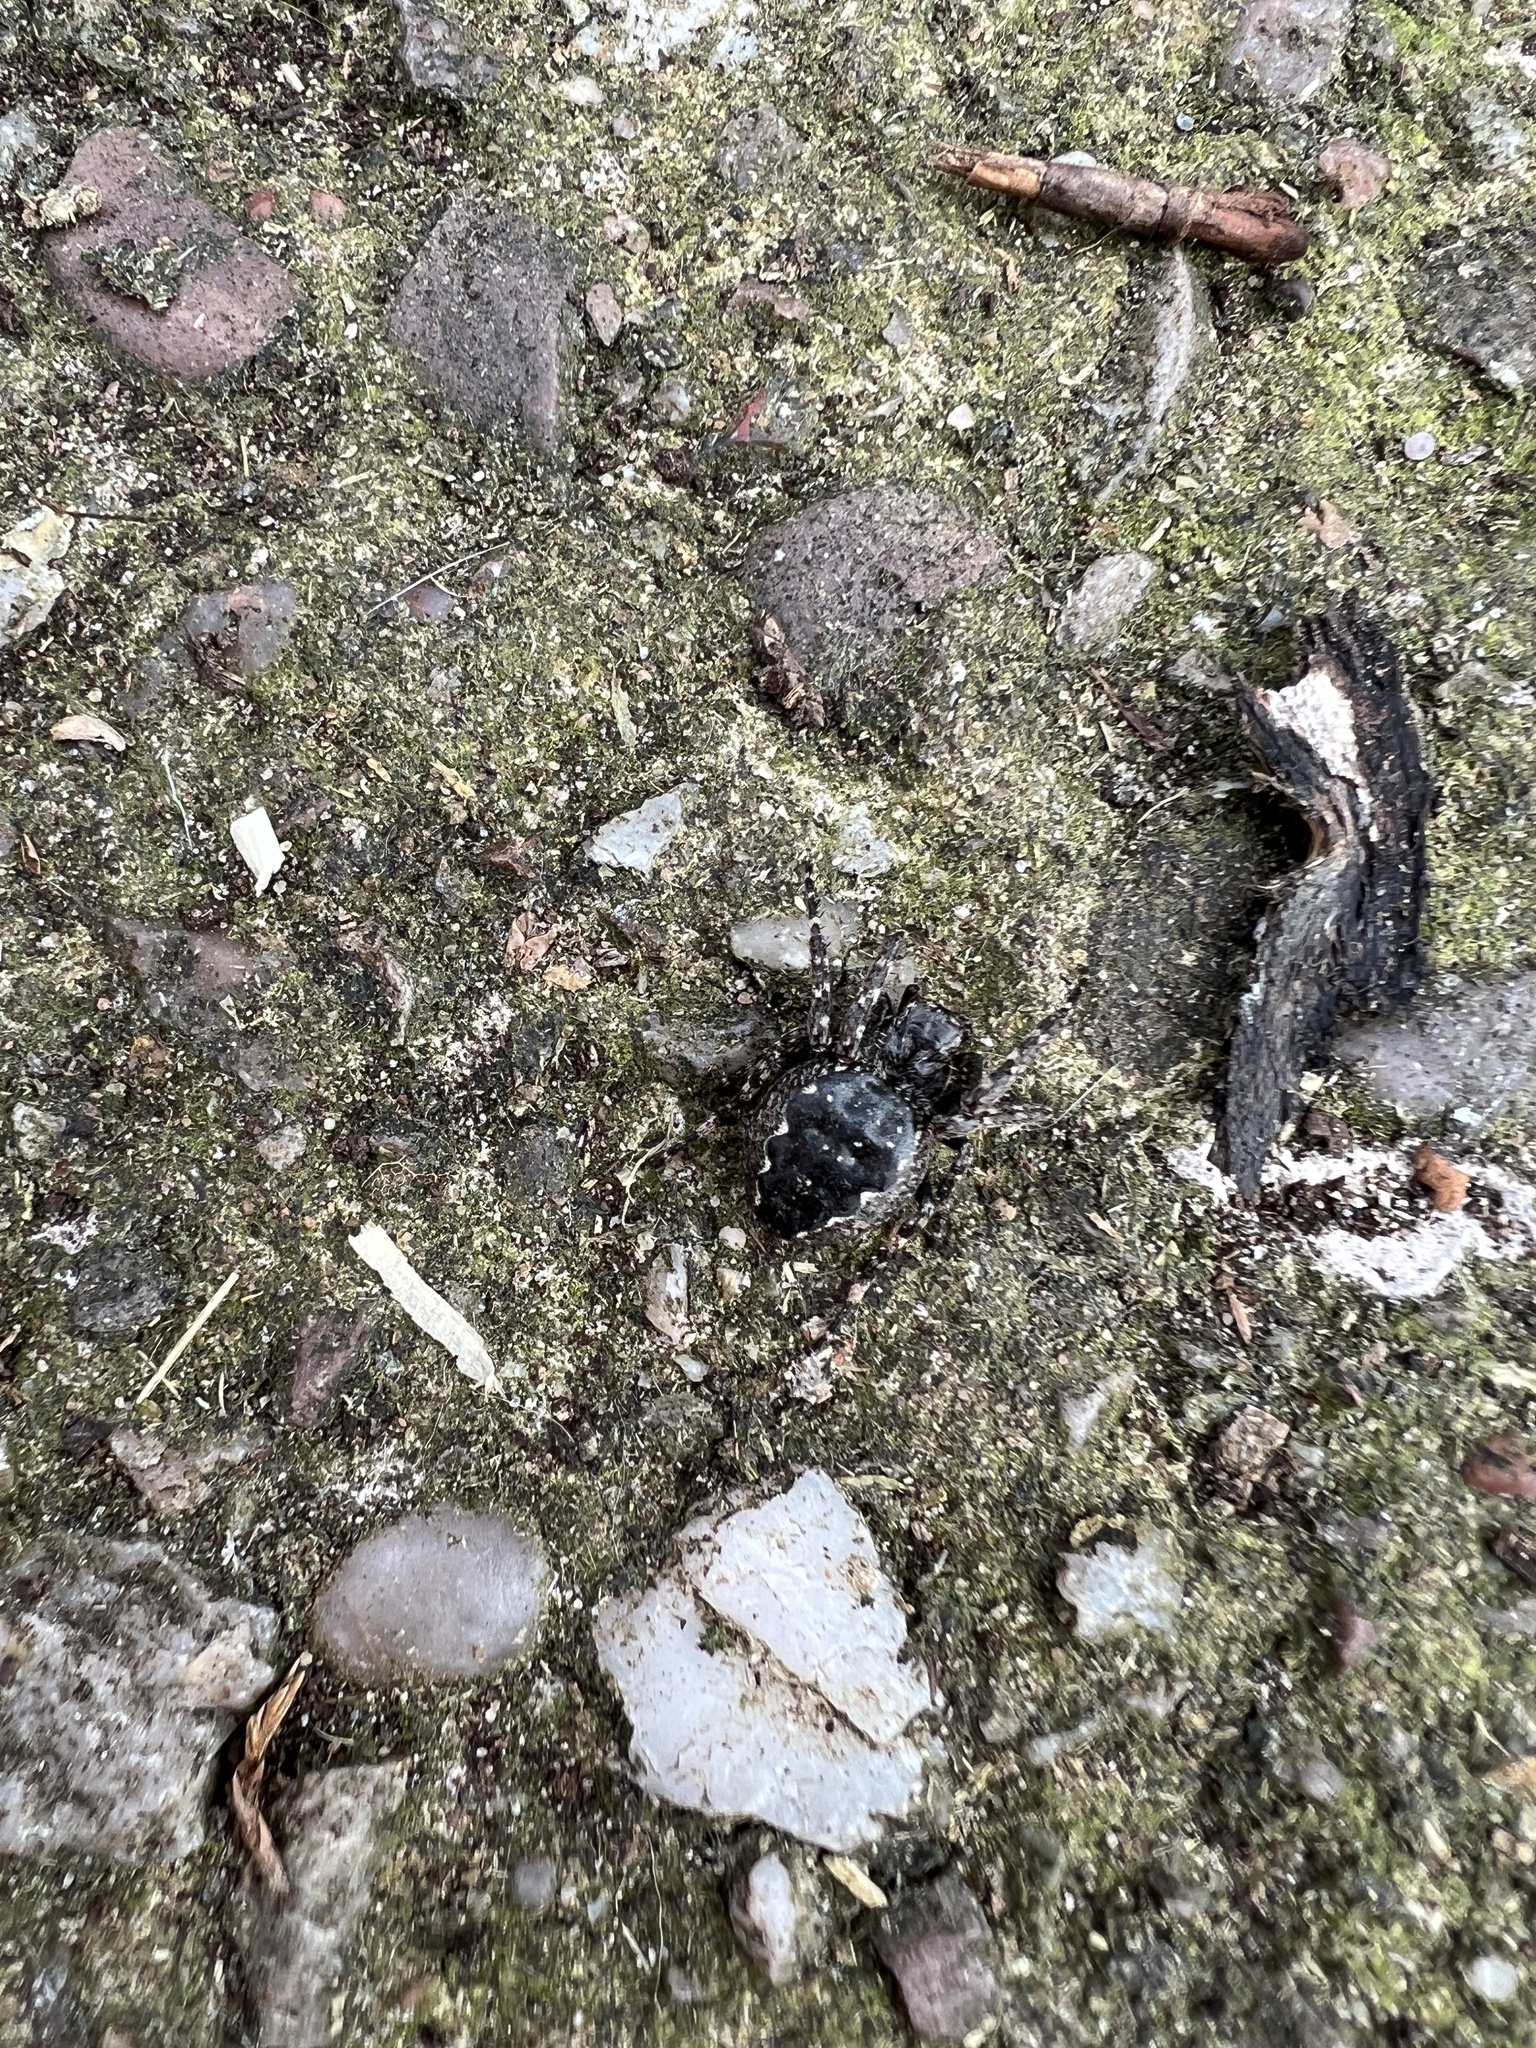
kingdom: Animalia
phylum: Arthropoda
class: Arachnida
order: Araneae
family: Araneidae
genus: Nuctenea
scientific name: Nuctenea umbratica
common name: Toad spider
